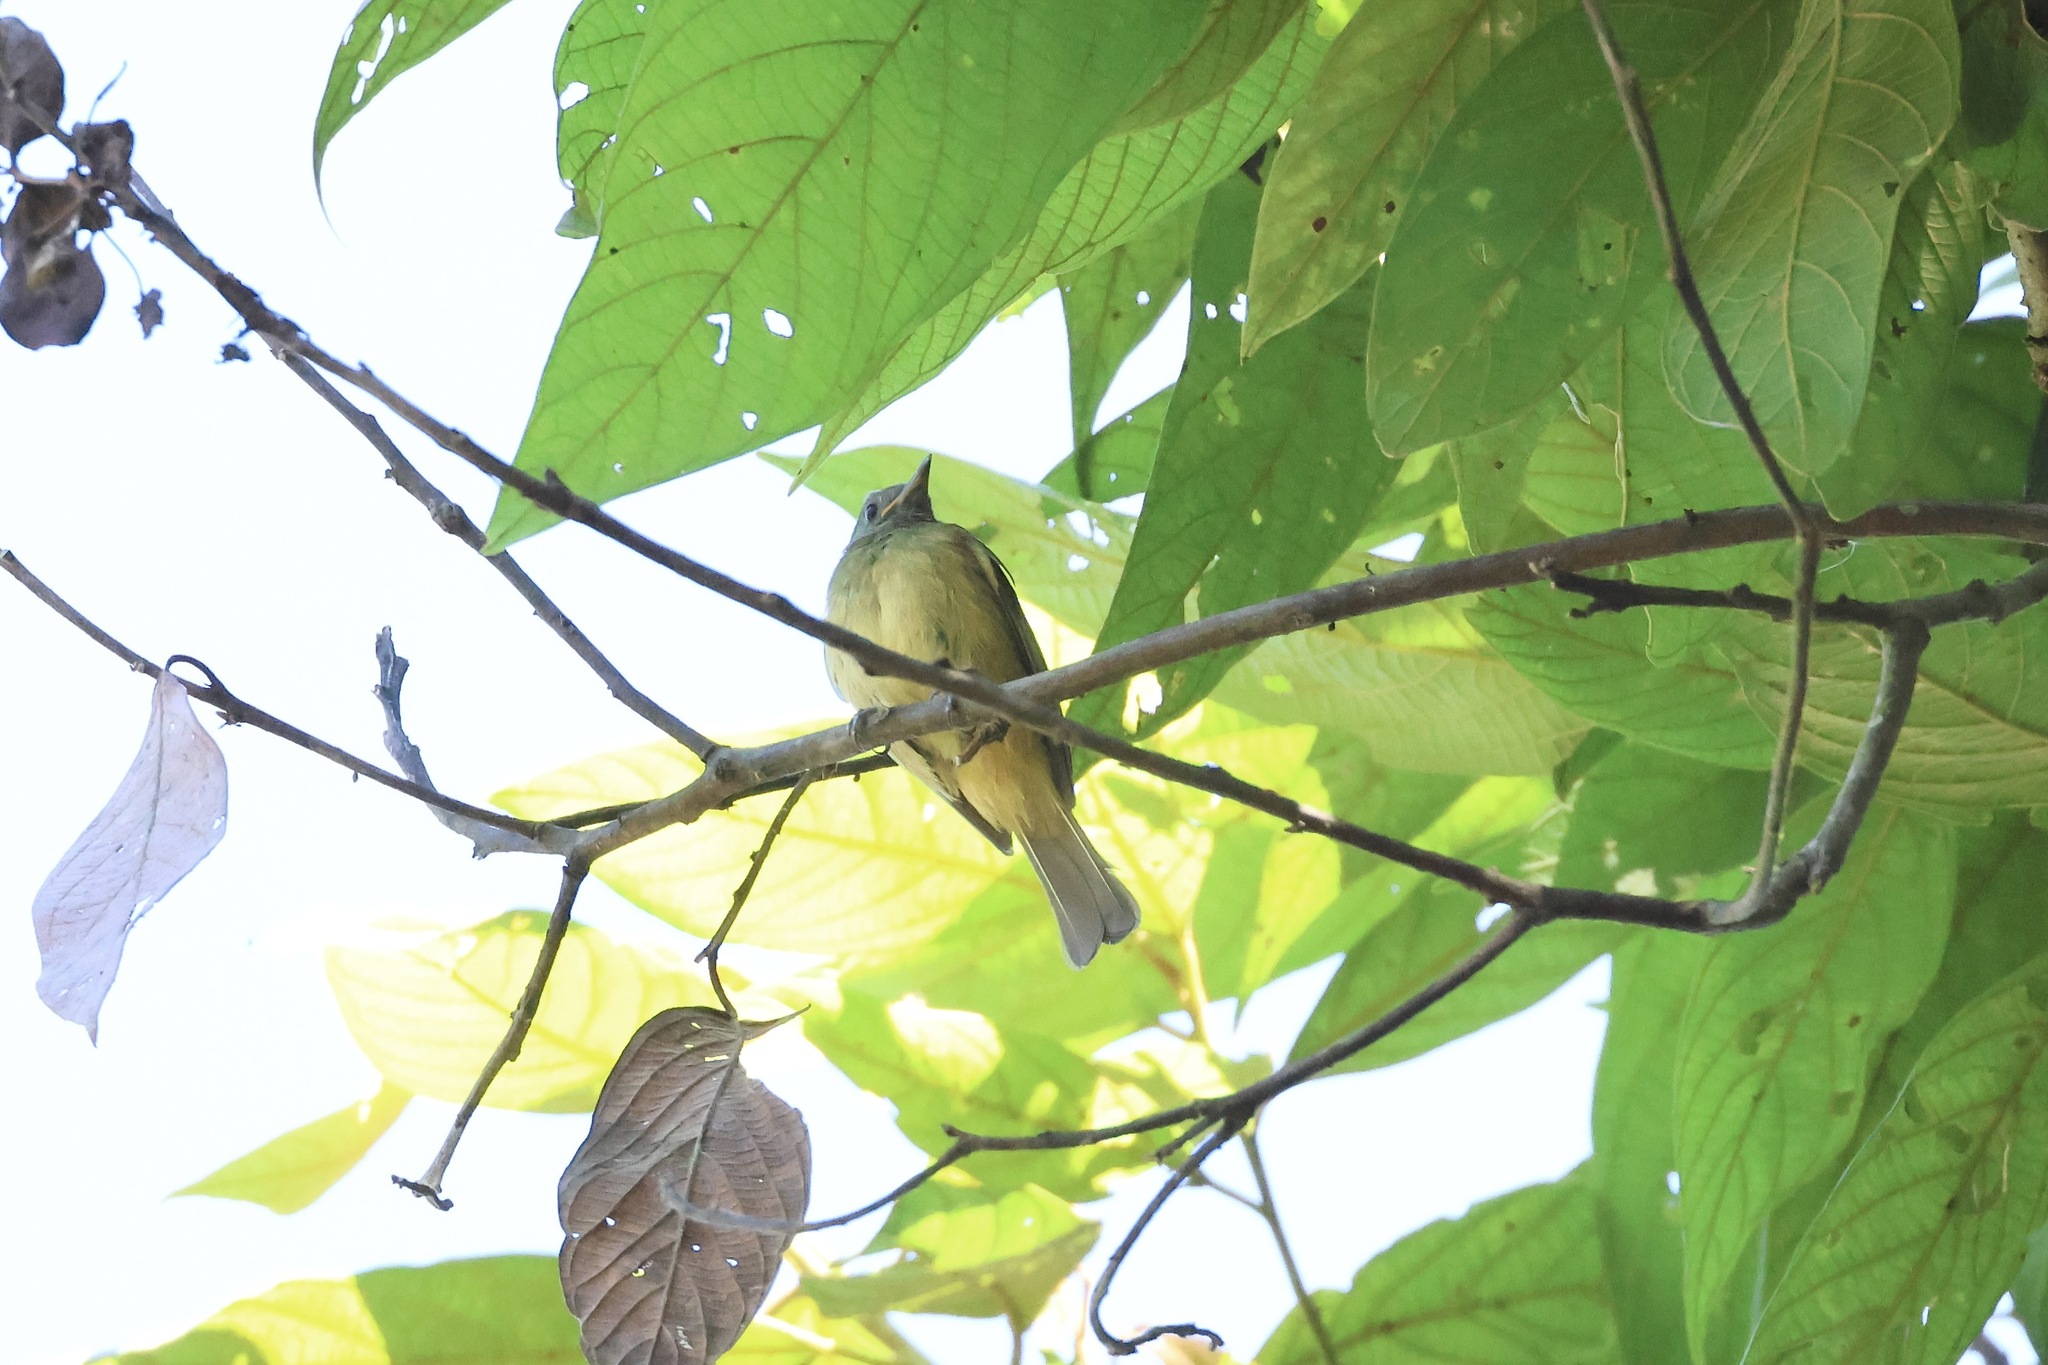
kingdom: Animalia
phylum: Chordata
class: Aves
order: Passeriformes
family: Tyrannidae
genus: Mionectes
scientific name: Mionectes oleagineus
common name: Ochre-bellied flycatcher
